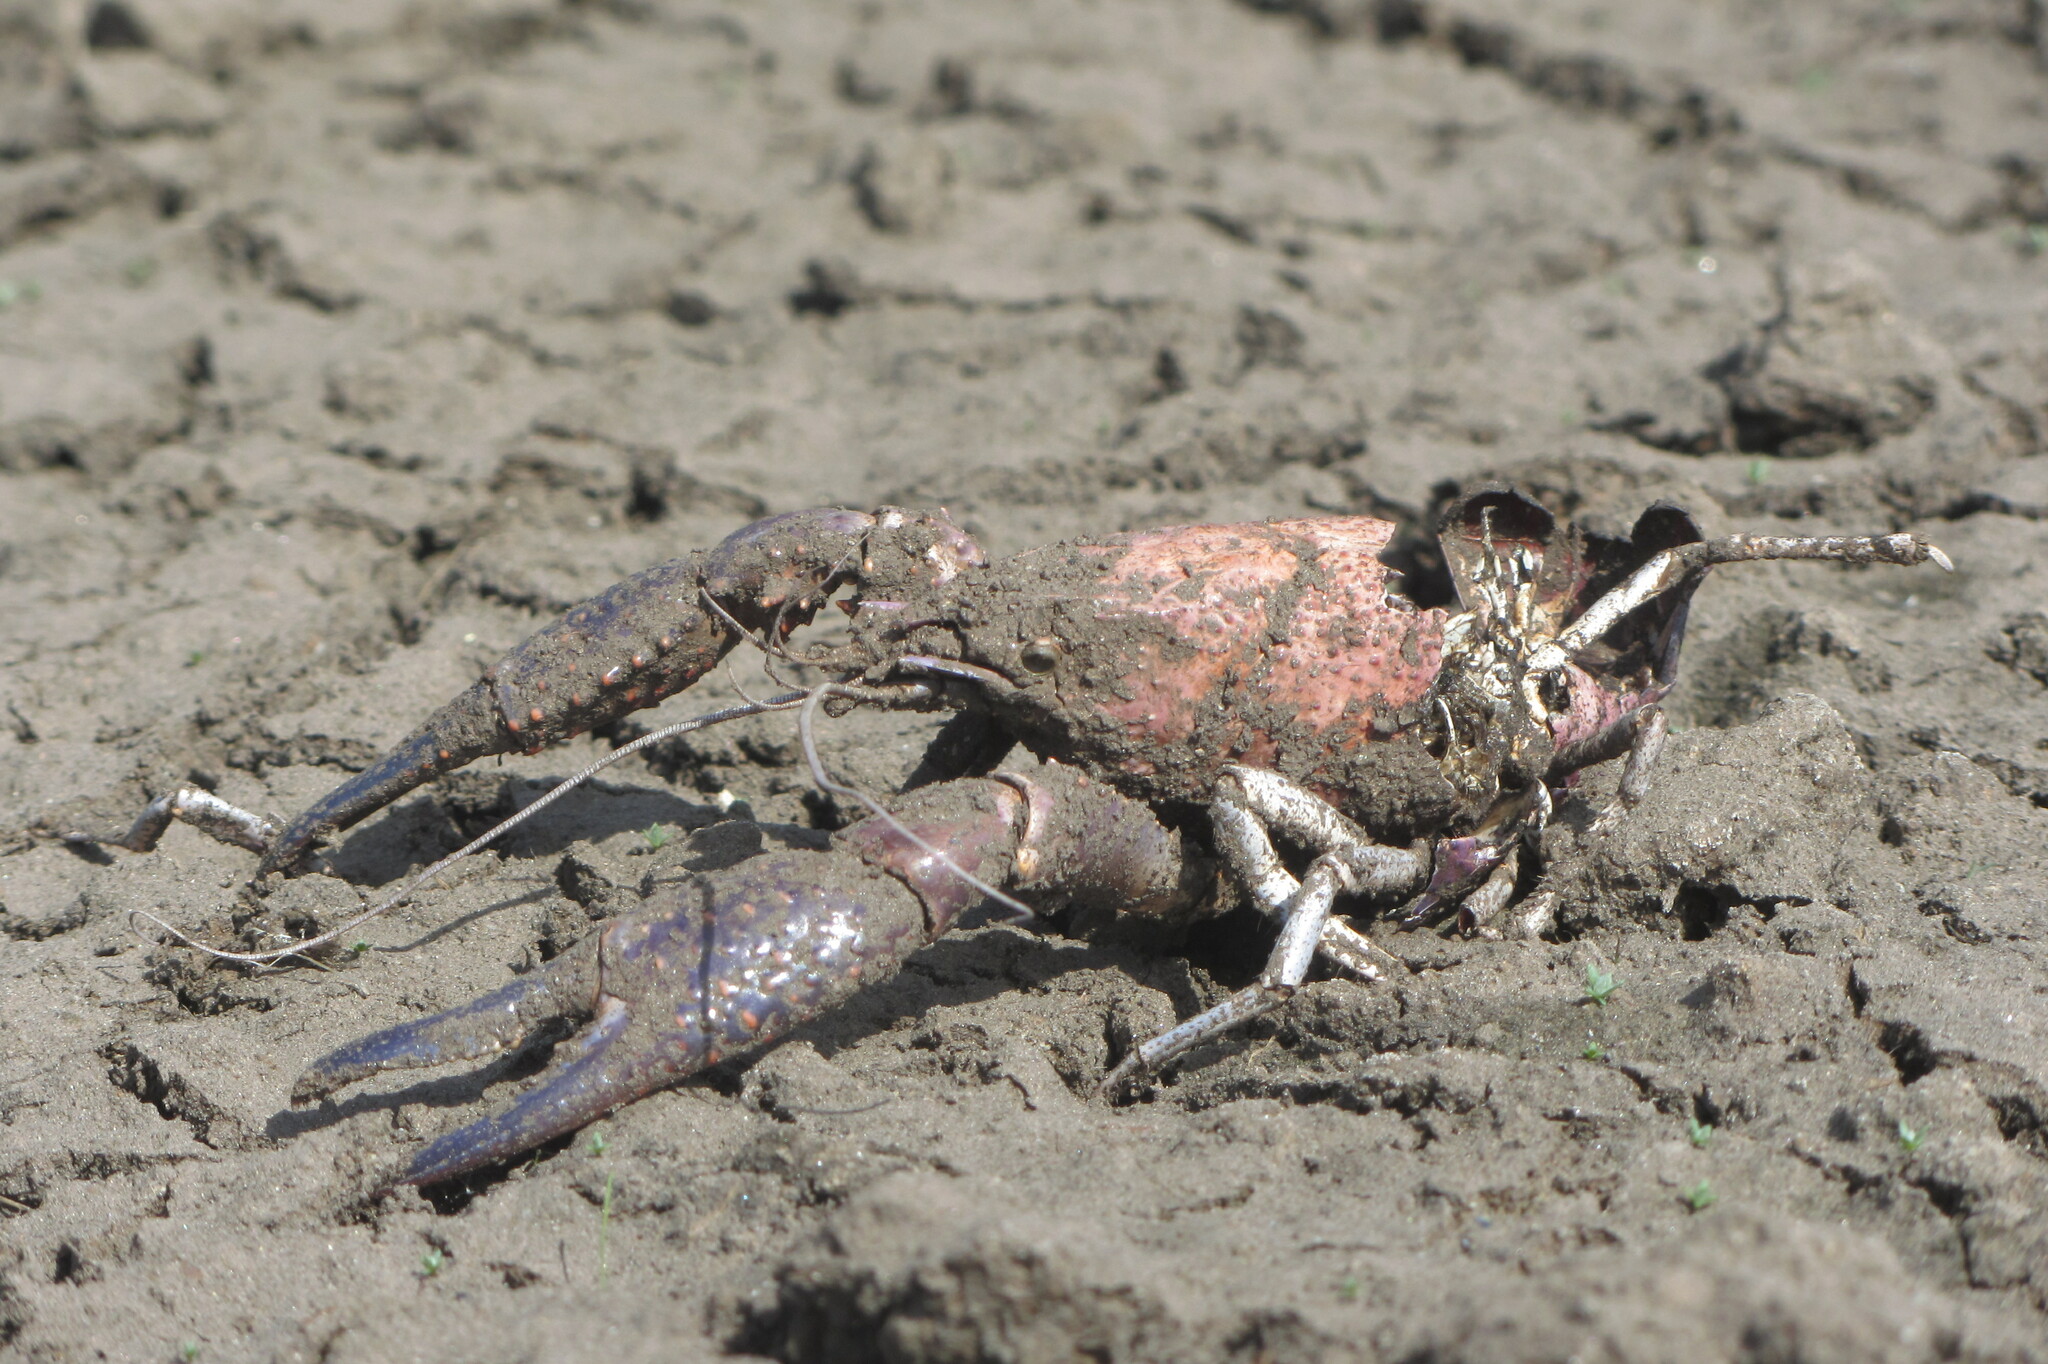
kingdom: Animalia
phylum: Arthropoda
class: Malacostraca
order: Decapoda
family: Cambaridae
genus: Procambarus
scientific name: Procambarus clarkii
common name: Red swamp crayfish
